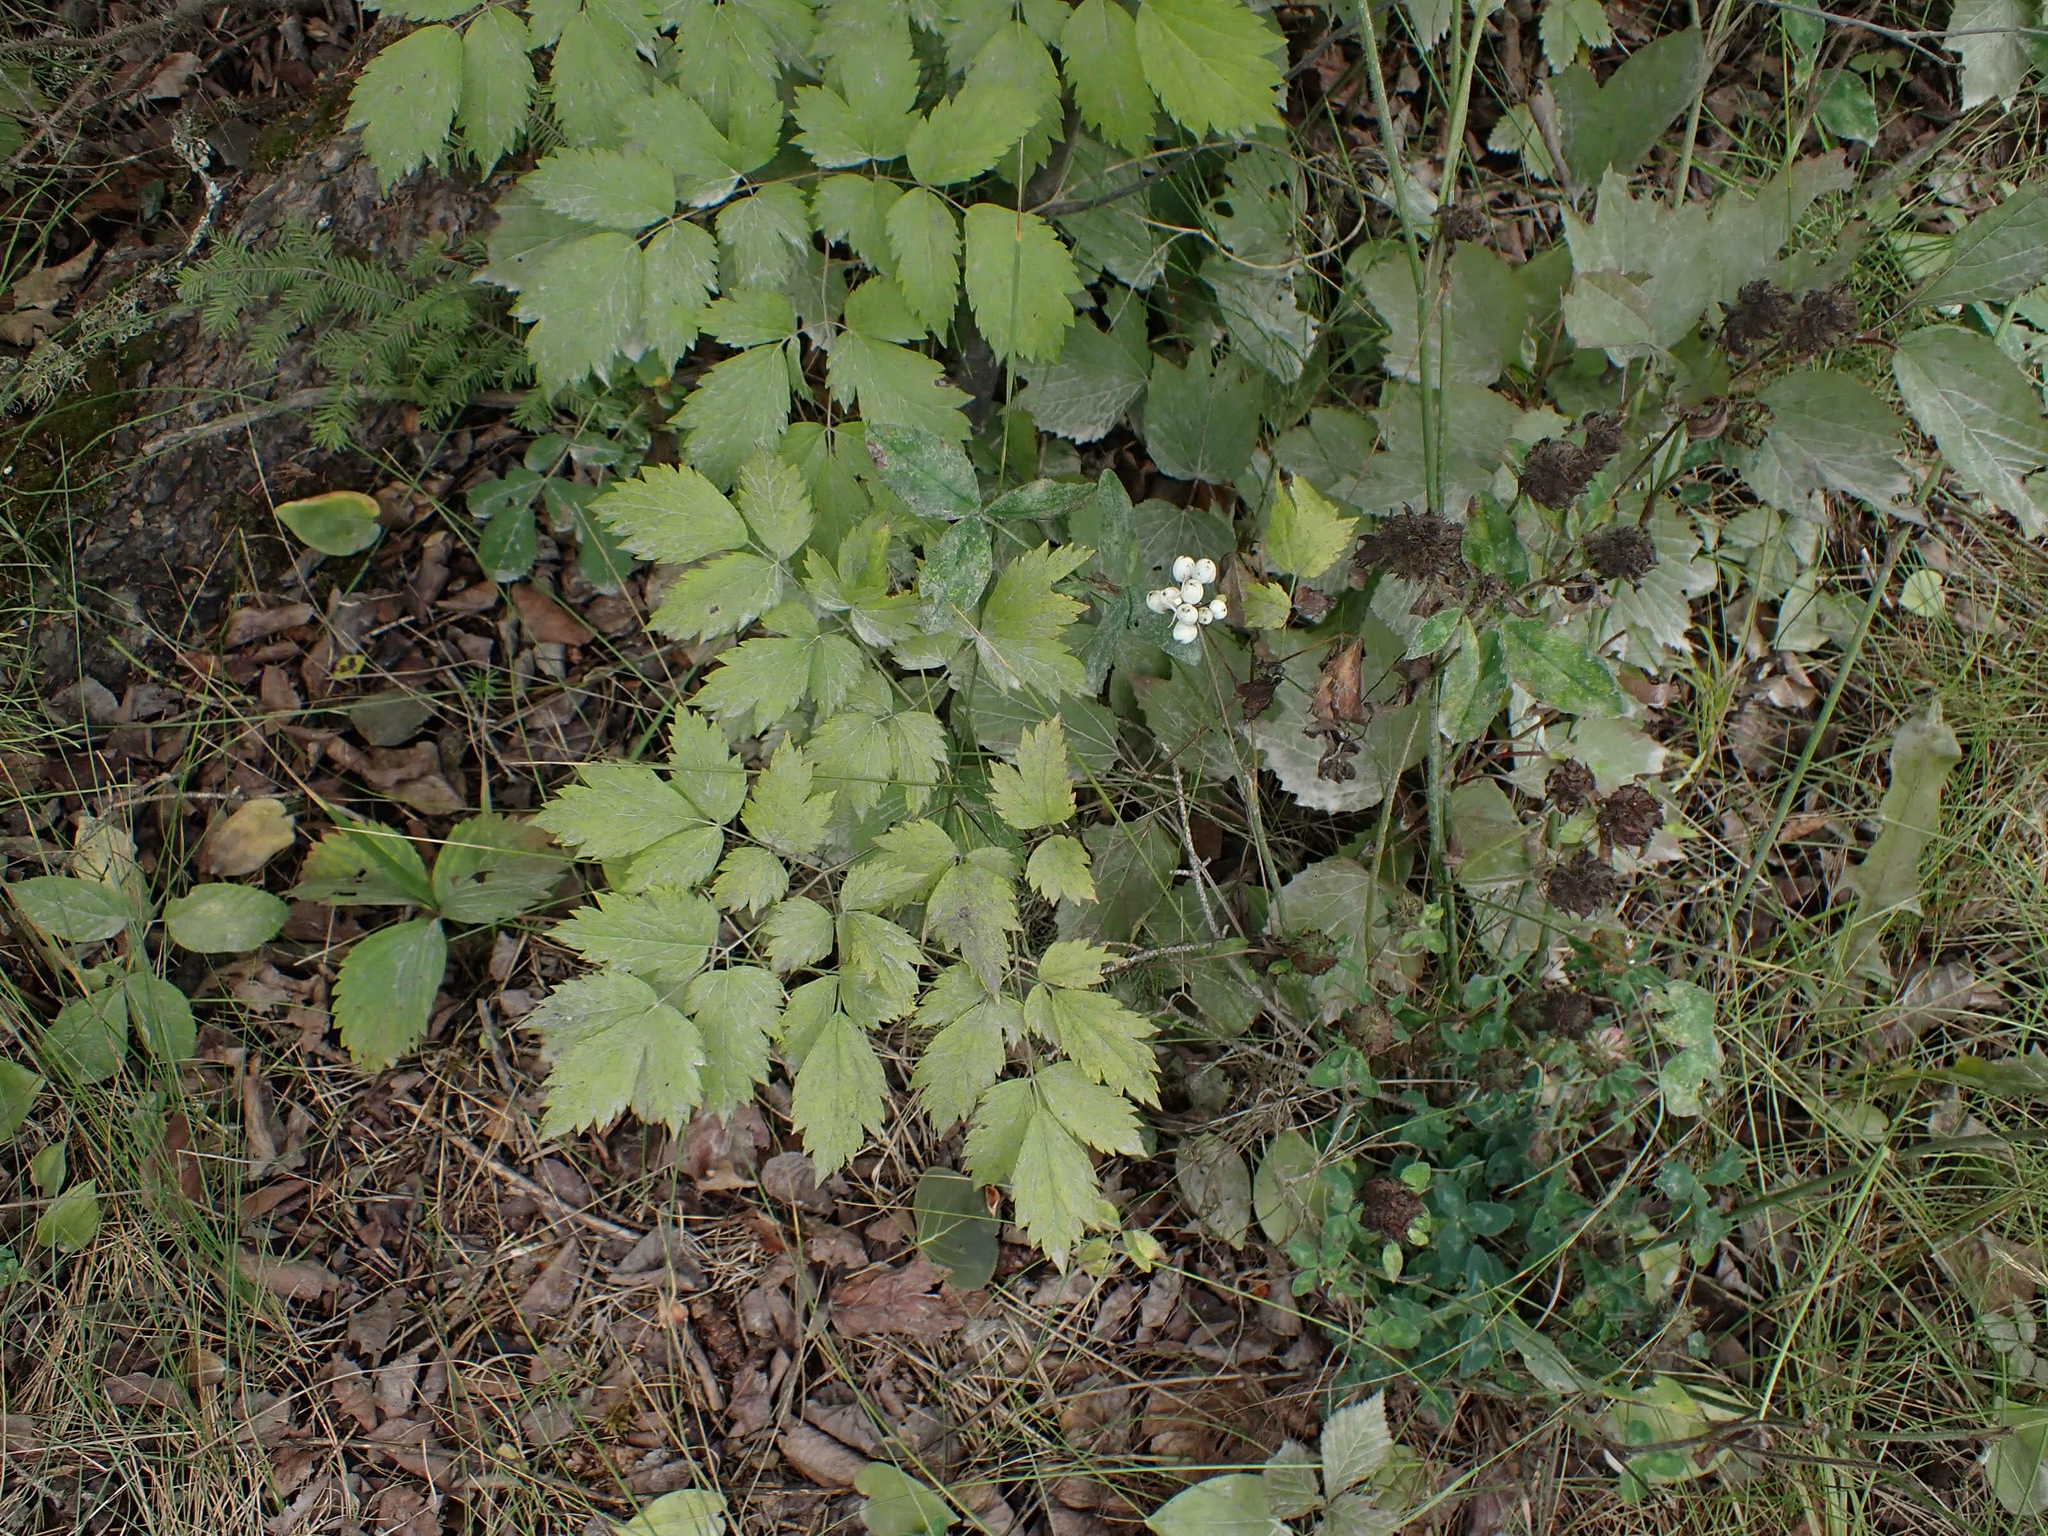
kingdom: Plantae
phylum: Tracheophyta
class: Magnoliopsida
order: Ranunculales
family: Ranunculaceae
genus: Actaea
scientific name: Actaea rubra
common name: Red baneberry
